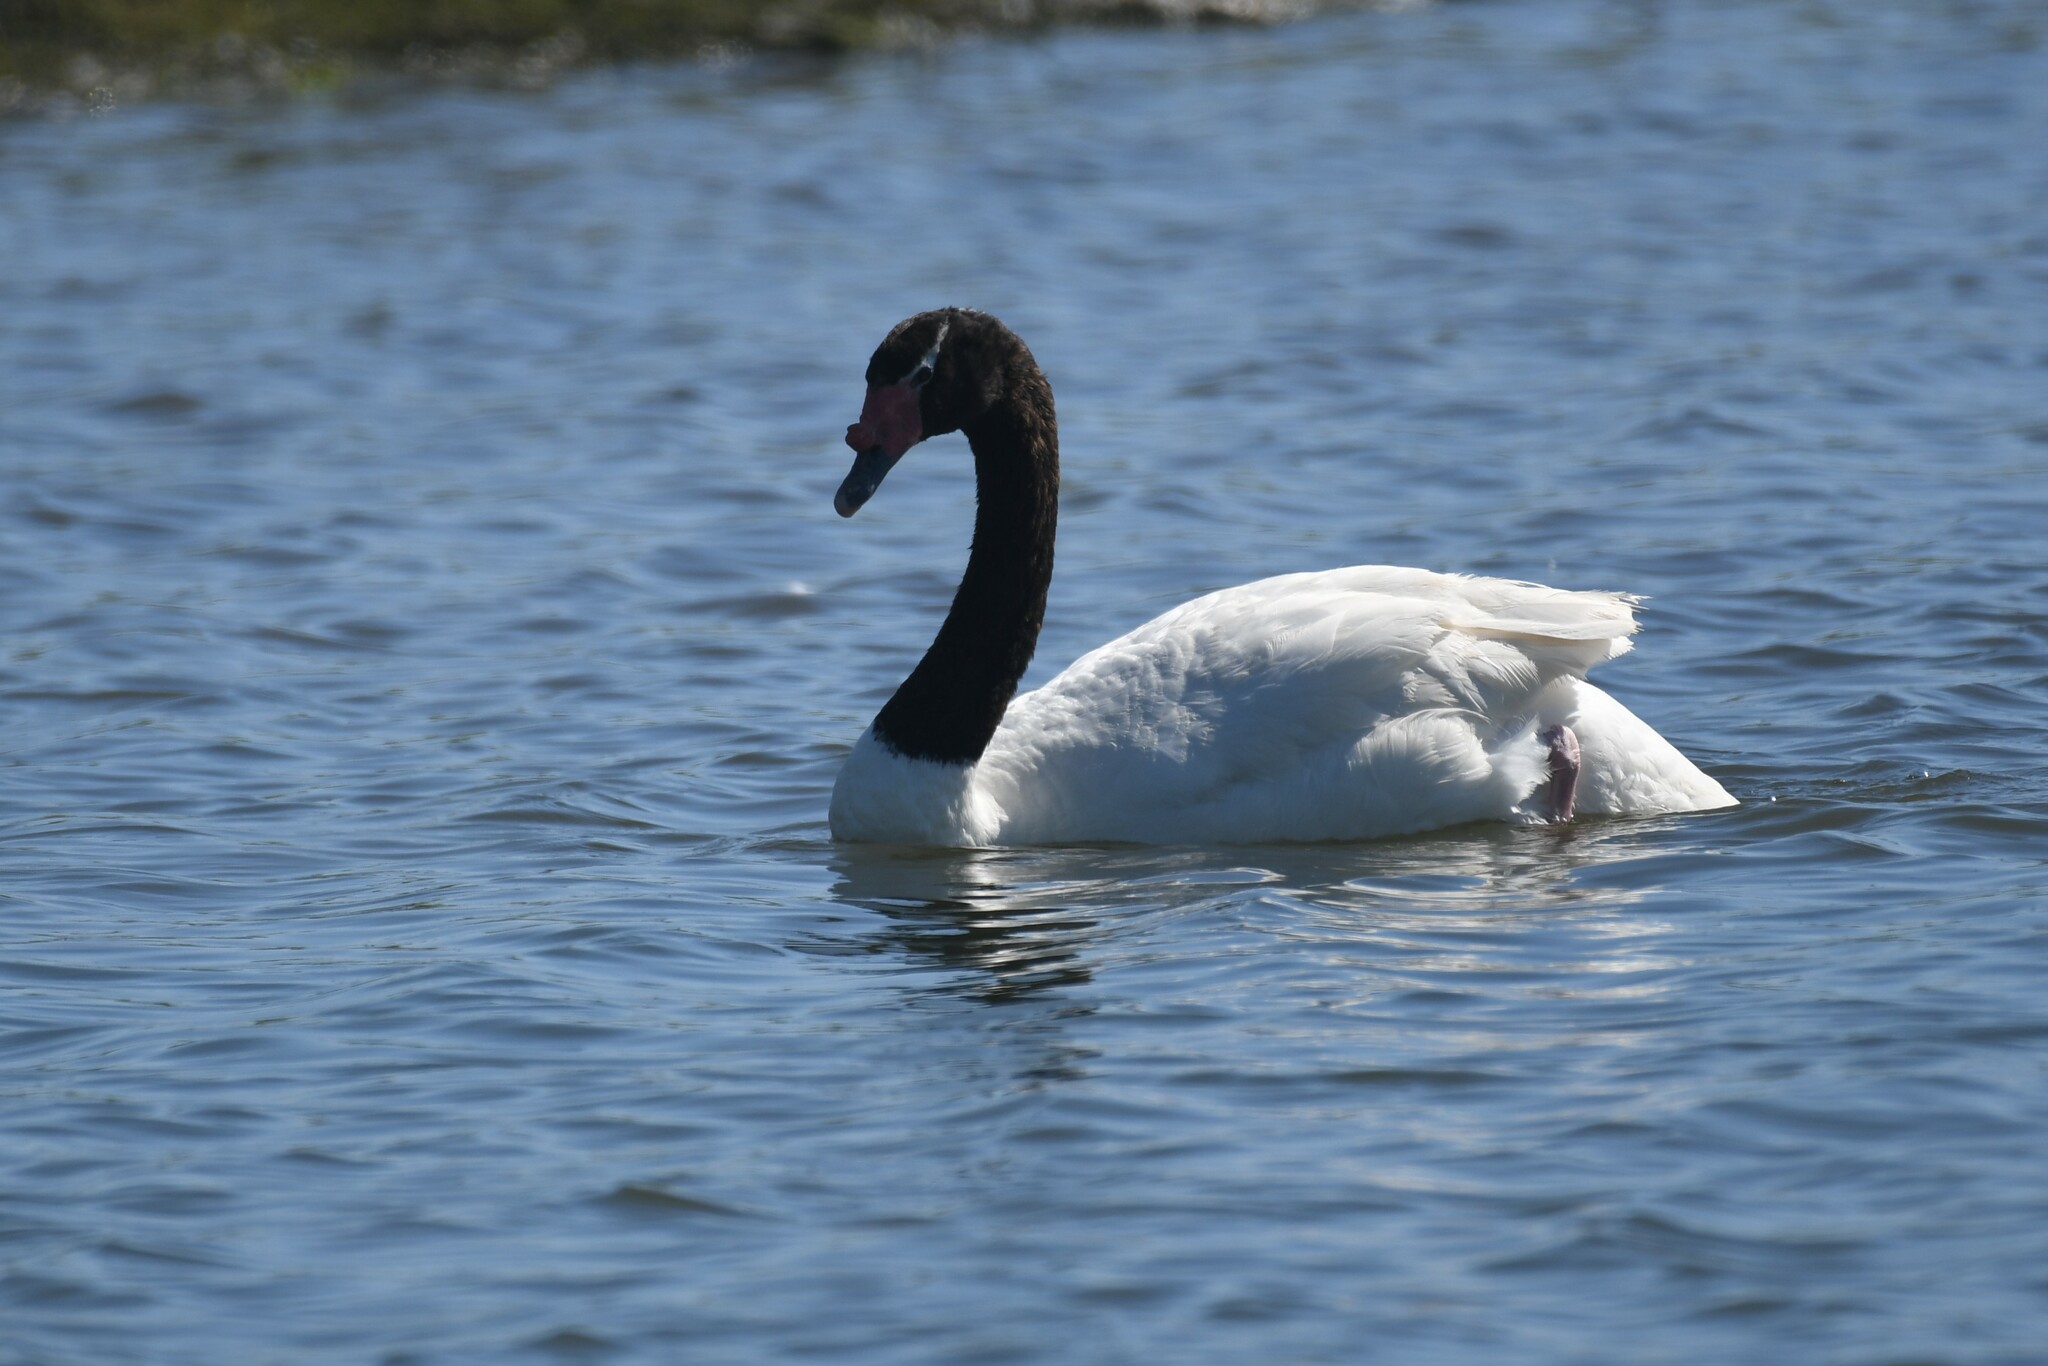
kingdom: Animalia
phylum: Chordata
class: Aves
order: Anseriformes
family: Anatidae
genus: Cygnus
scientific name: Cygnus melancoryphus
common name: Black-necked swan
